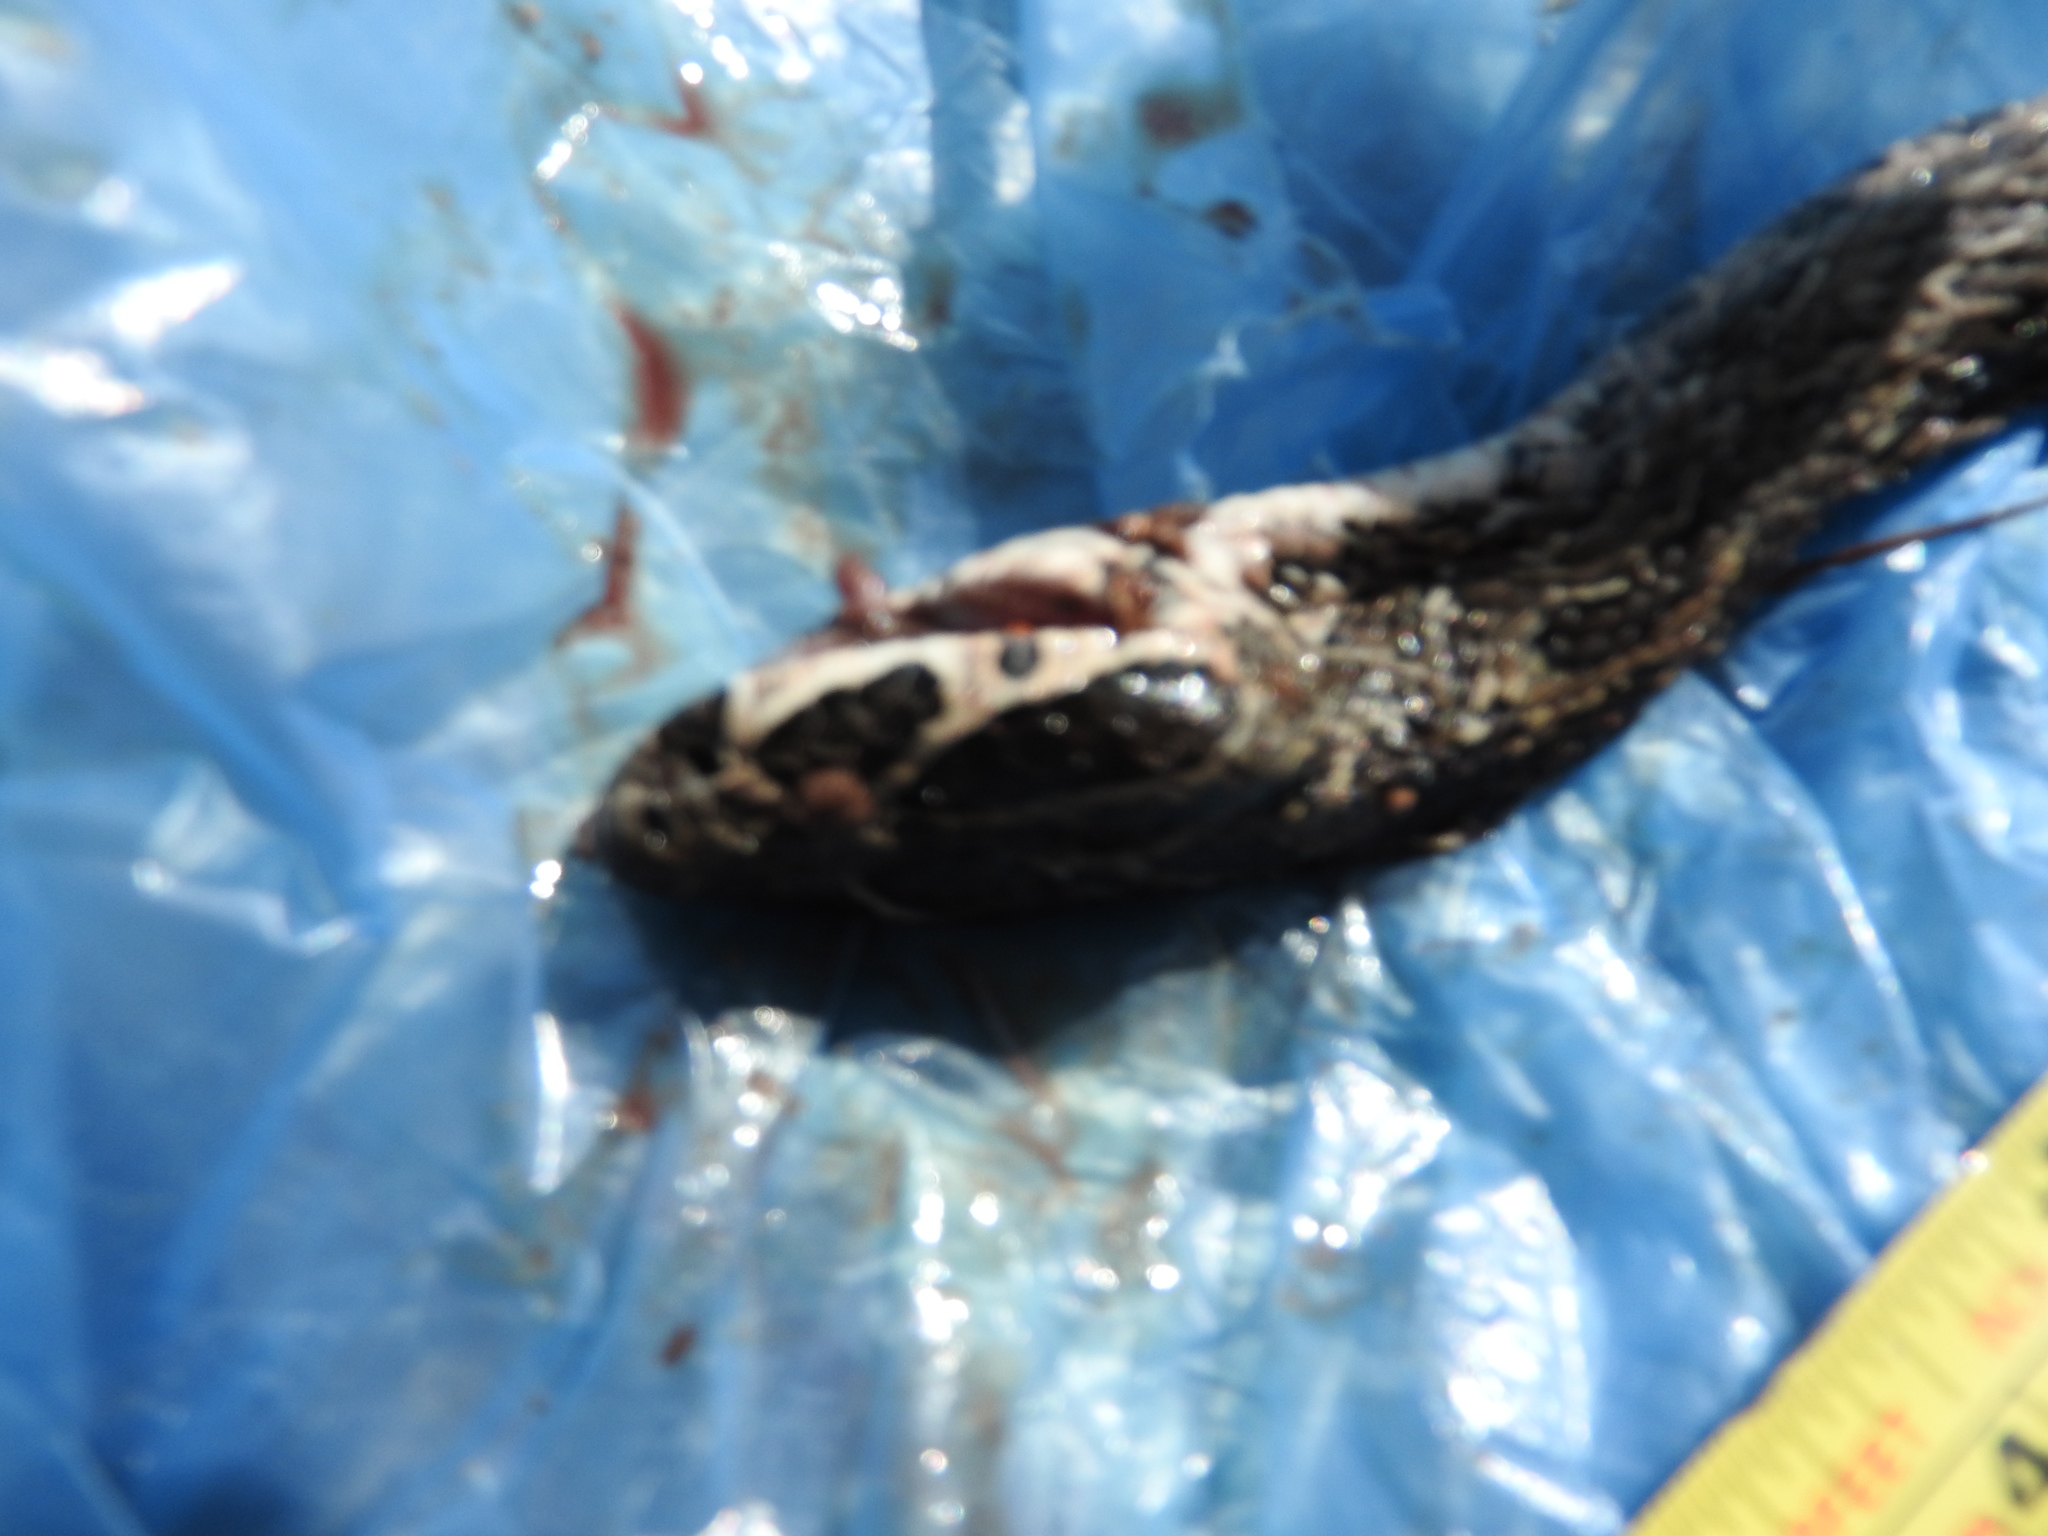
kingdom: Animalia
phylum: Chordata
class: Squamata
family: Viperidae
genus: Crotalus
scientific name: Crotalus polystictus
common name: Mexican lancehead rattlesnake
